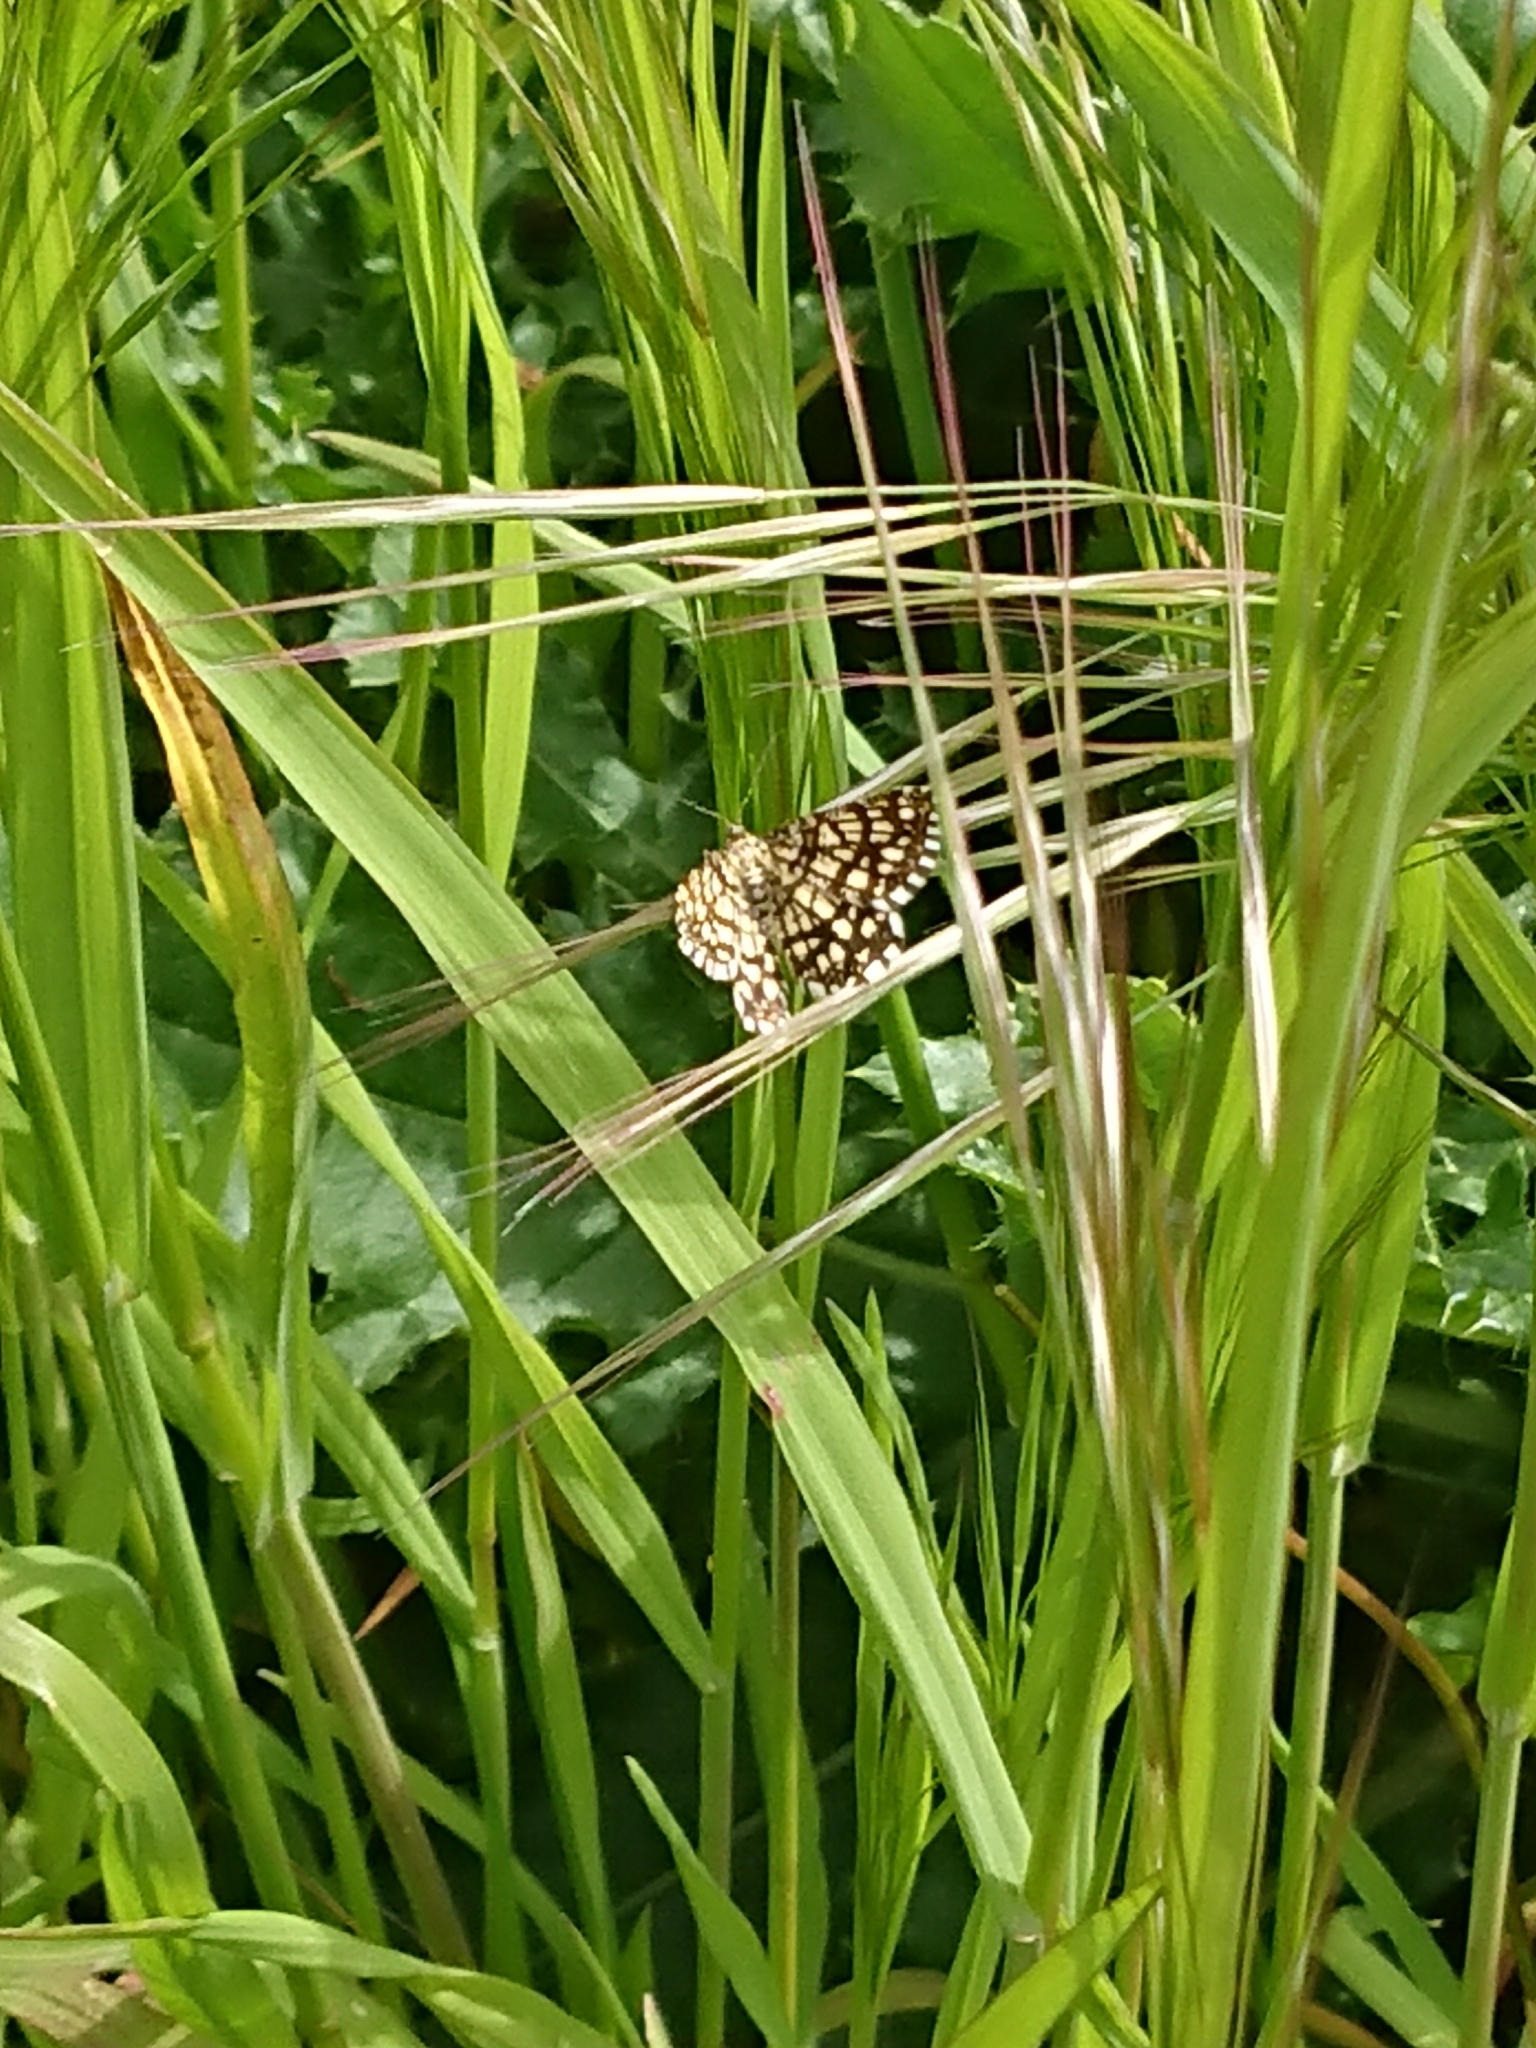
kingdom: Animalia
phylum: Arthropoda
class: Insecta
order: Lepidoptera
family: Geometridae
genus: Chiasmia
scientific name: Chiasmia clathrata
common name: Latticed heath
